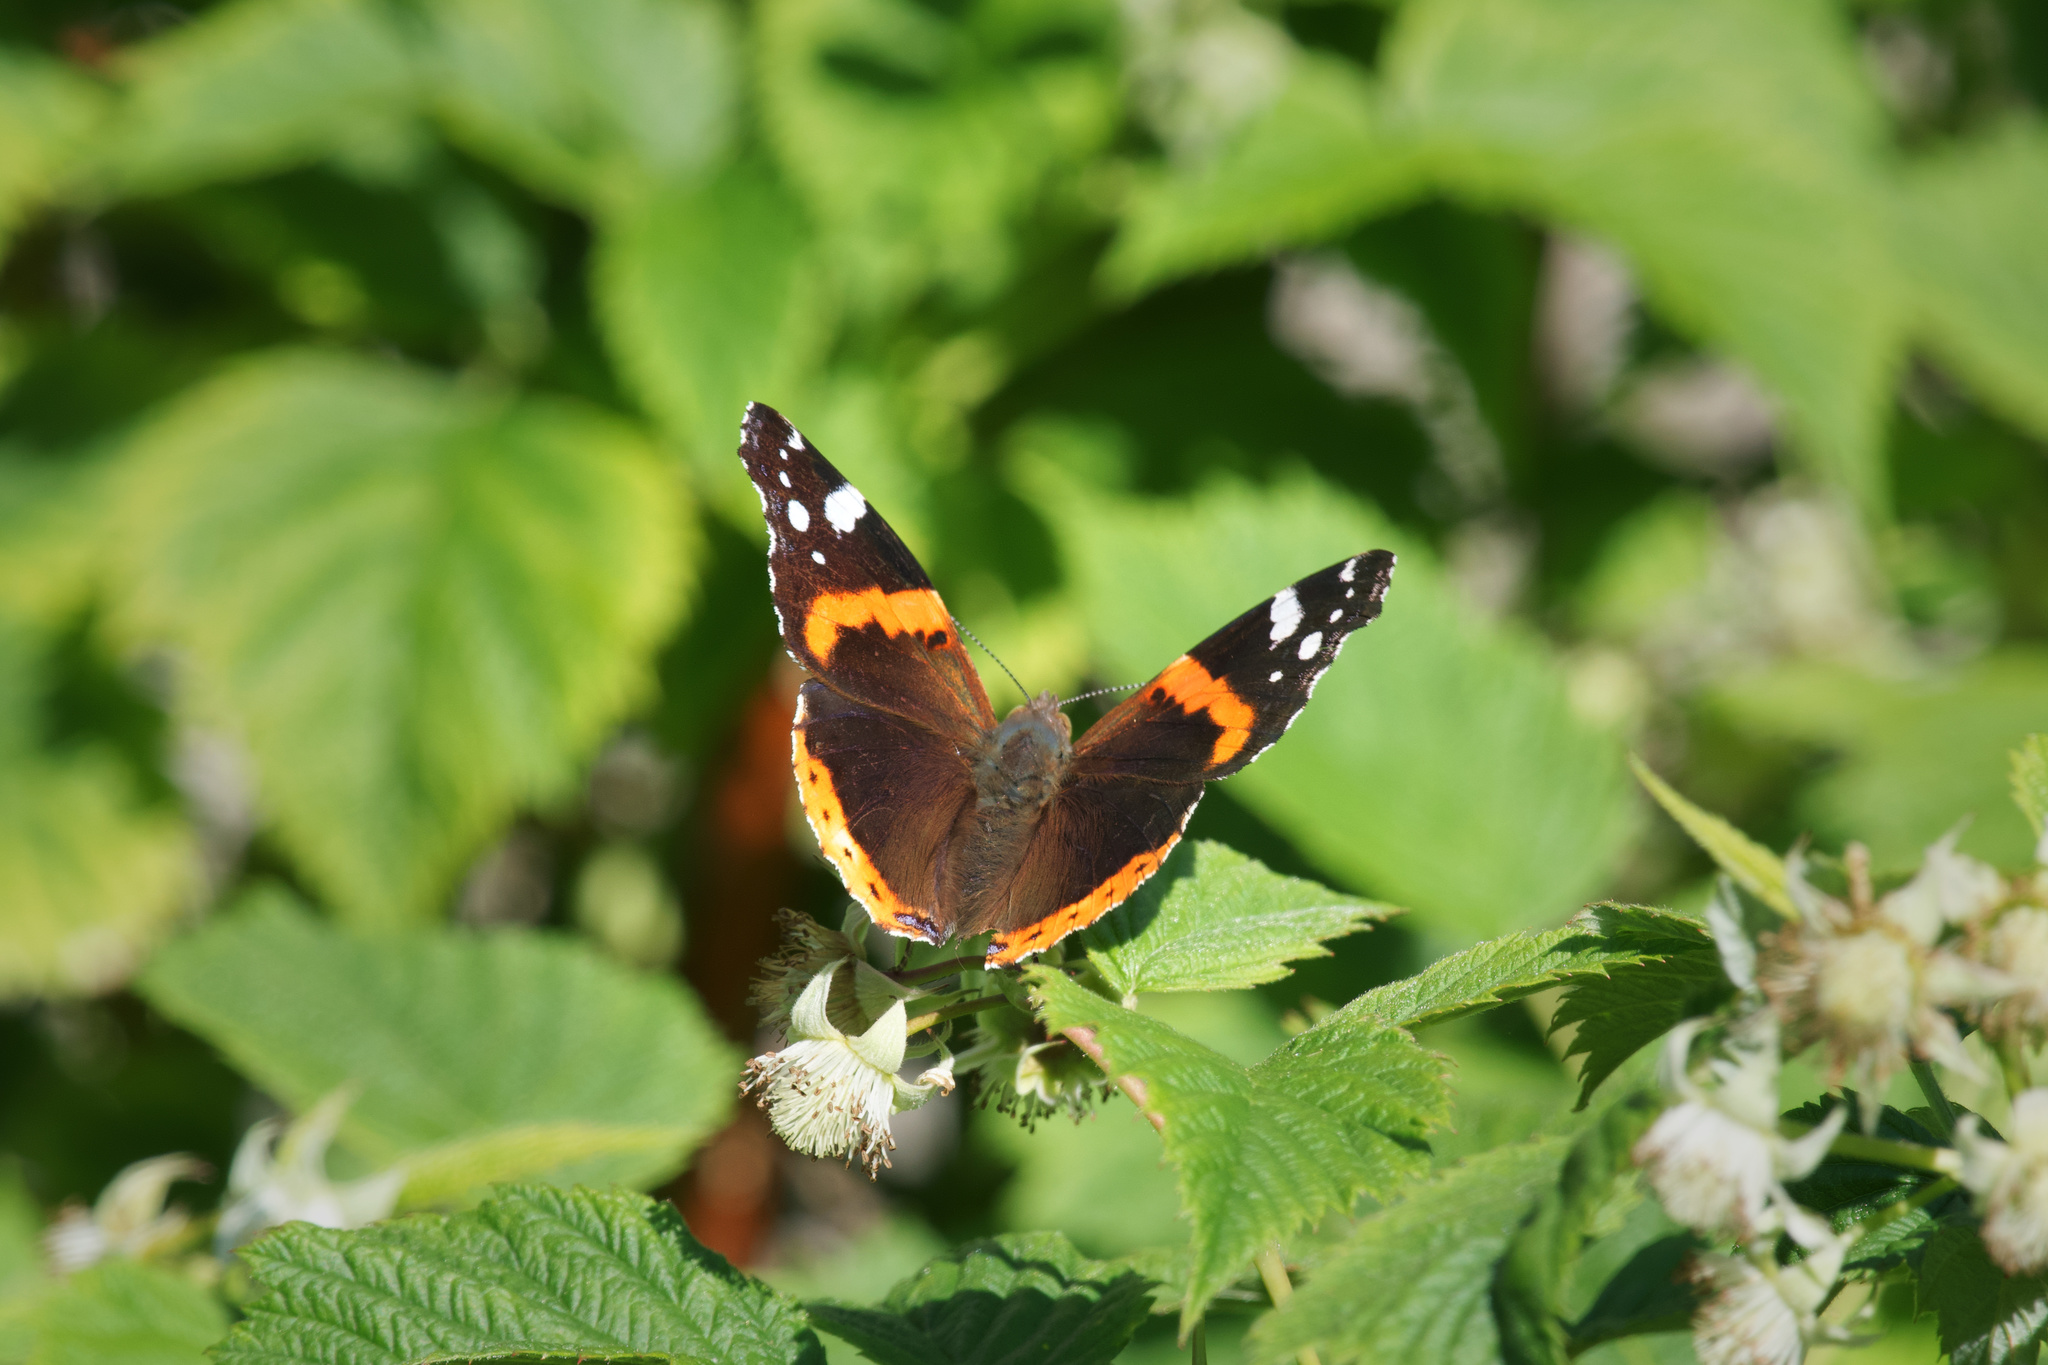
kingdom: Animalia
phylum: Arthropoda
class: Insecta
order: Lepidoptera
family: Nymphalidae
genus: Vanessa
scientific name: Vanessa atalanta
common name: Red admiral
